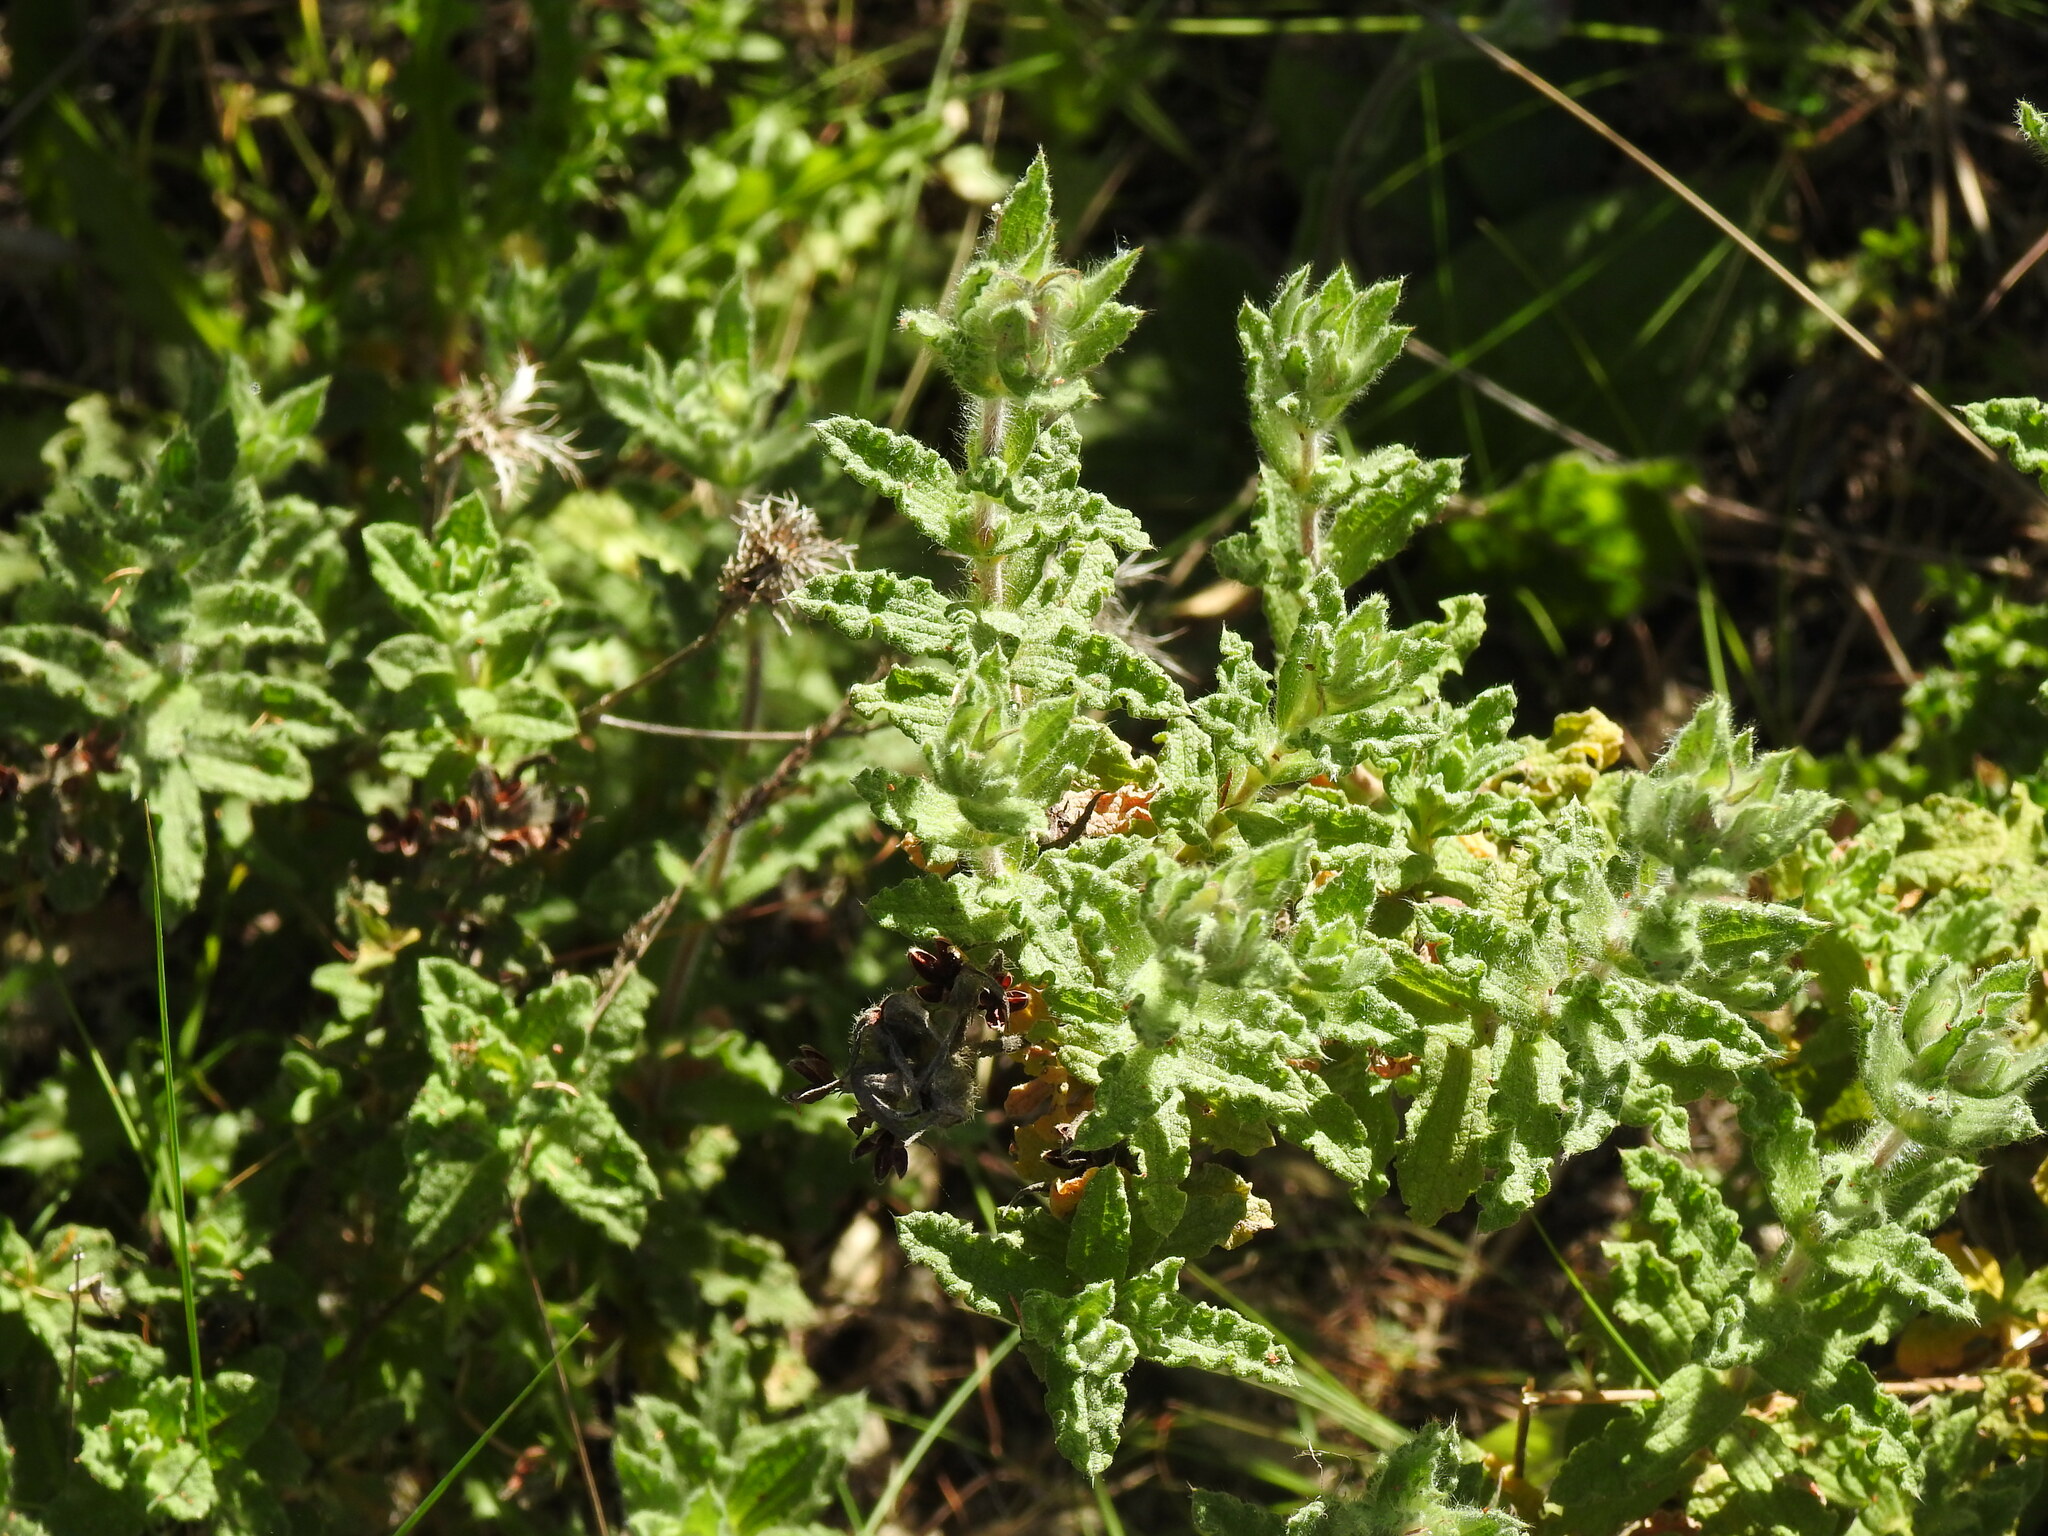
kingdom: Plantae
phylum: Tracheophyta
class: Magnoliopsida
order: Malvales
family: Cistaceae
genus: Cistus
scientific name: Cistus crispus
